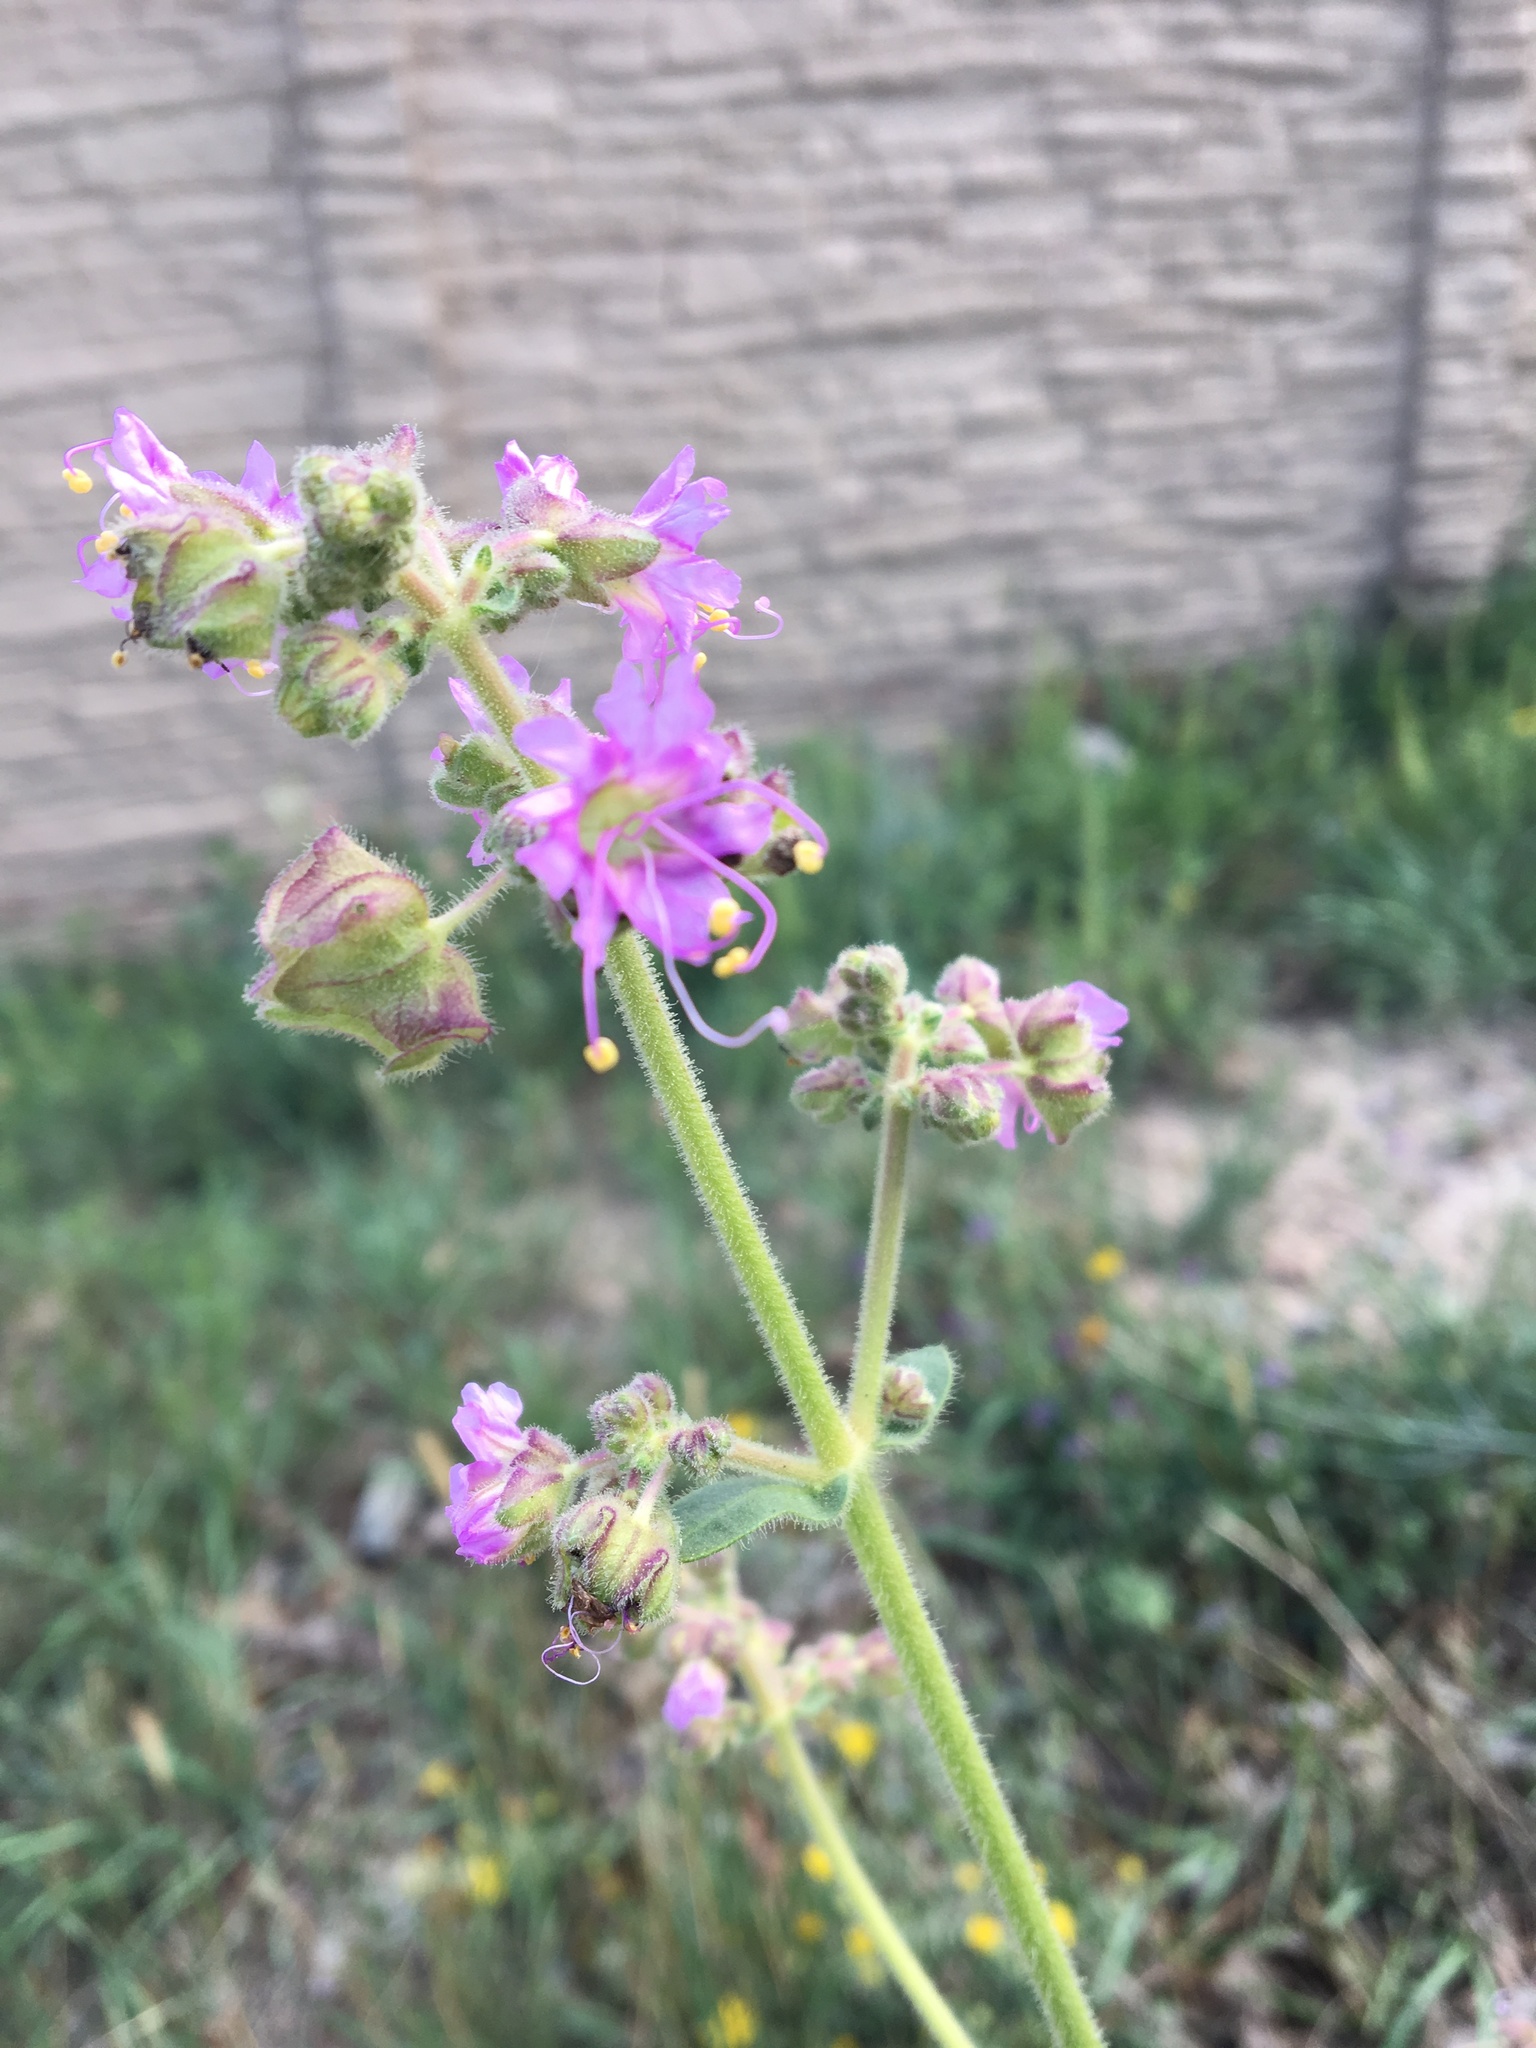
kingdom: Plantae
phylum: Tracheophyta
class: Magnoliopsida
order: Caryophyllales
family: Nyctaginaceae
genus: Mirabilis
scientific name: Mirabilis nyctaginea
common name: Umbrella wort
